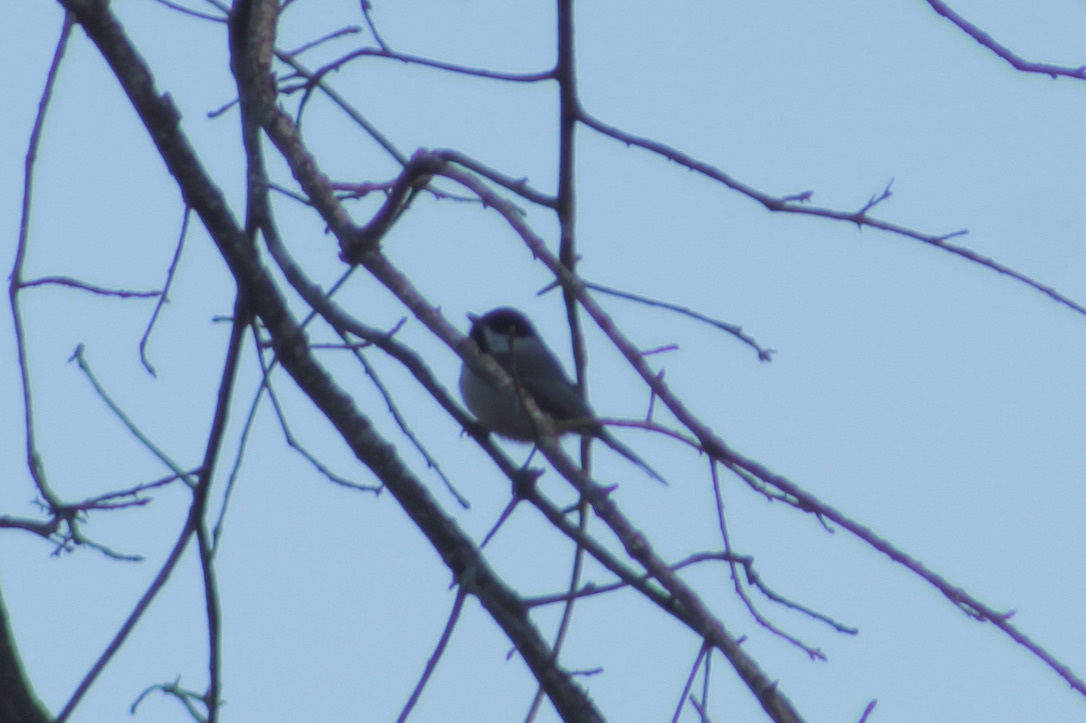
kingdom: Animalia
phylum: Chordata
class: Aves
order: Passeriformes
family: Paridae
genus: Poecile
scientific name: Poecile carolinensis
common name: Carolina chickadee
